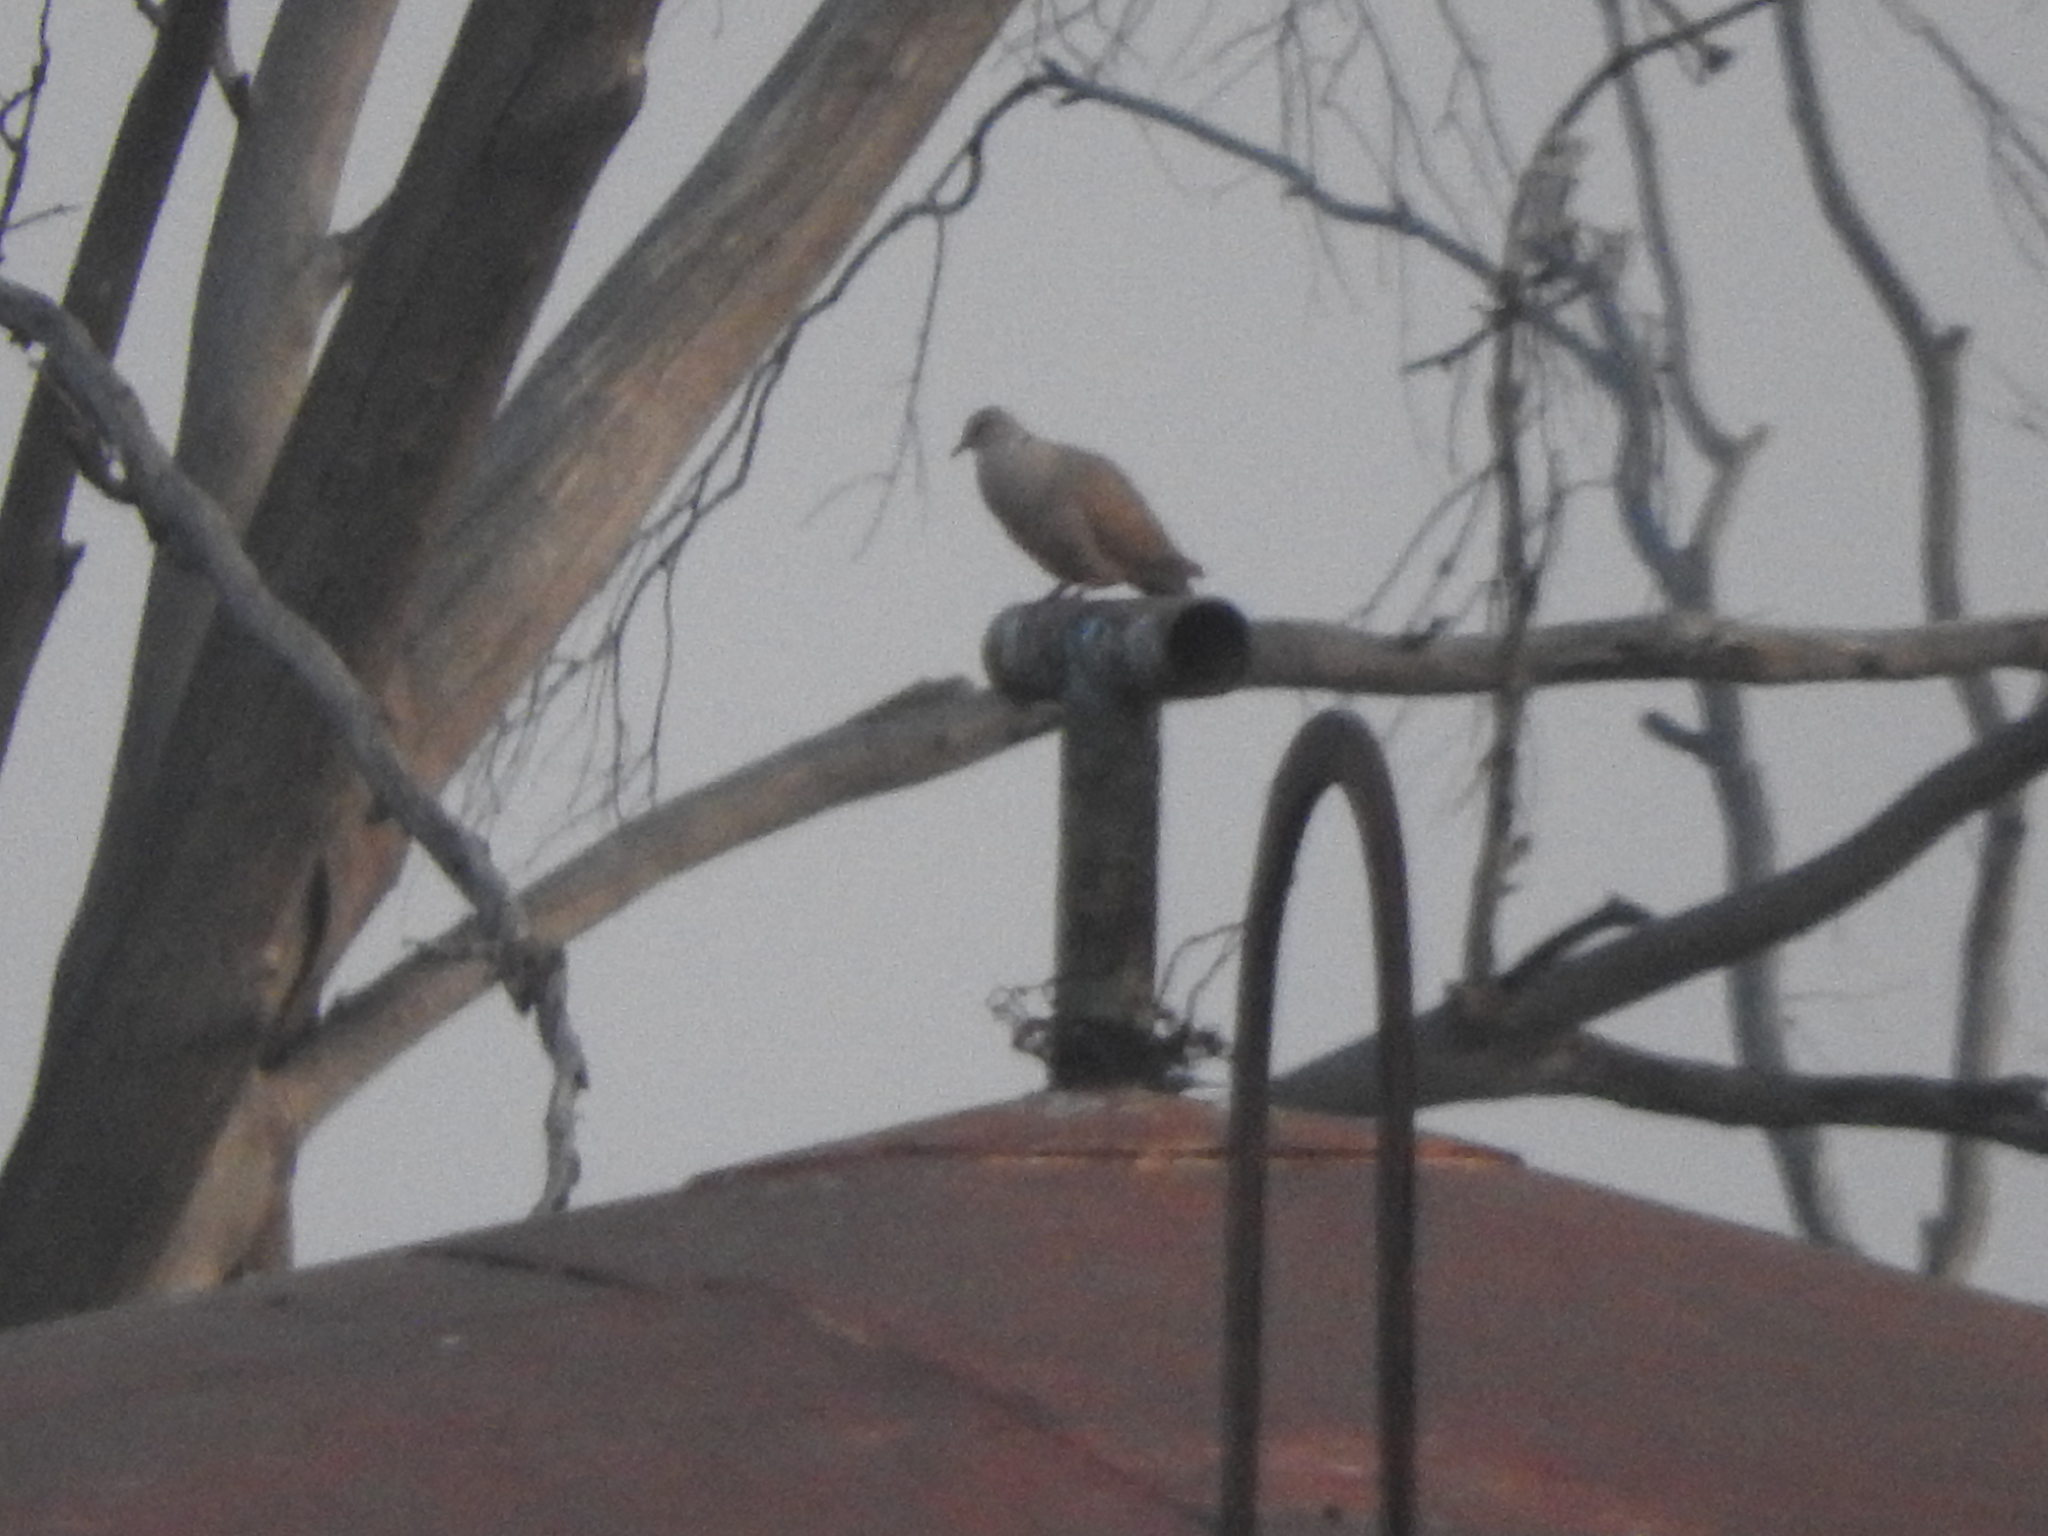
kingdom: Animalia
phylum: Chordata
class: Aves
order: Columbiformes
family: Columbidae
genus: Streptopelia
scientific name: Streptopelia decaocto
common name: Eurasian collared dove
